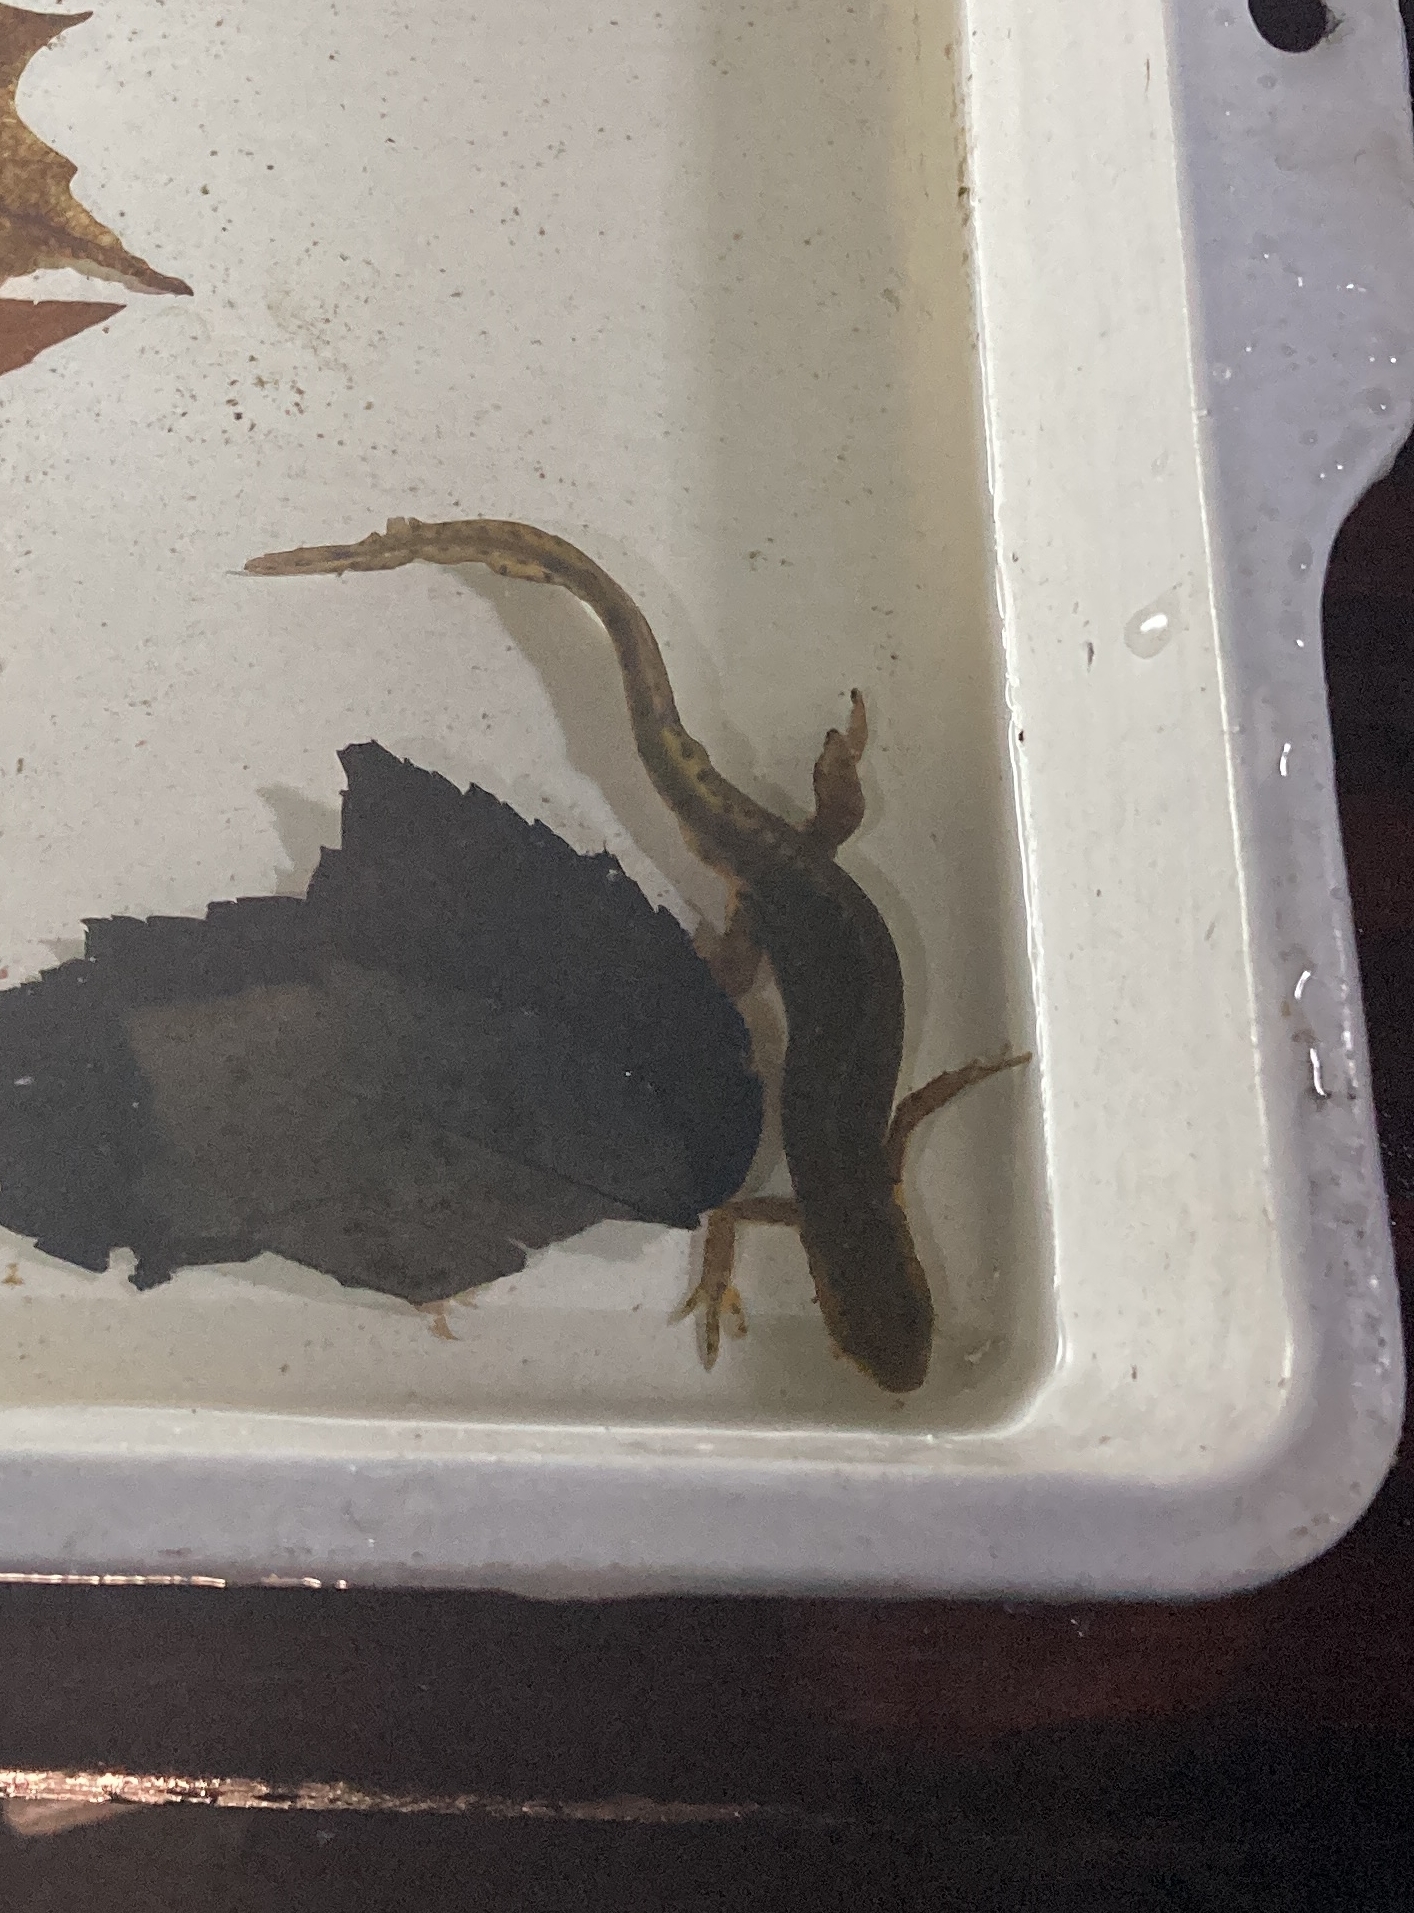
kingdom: Animalia
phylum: Chordata
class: Amphibia
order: Caudata
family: Salamandridae
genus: Notophthalmus
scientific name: Notophthalmus viridescens
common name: Eastern newt
